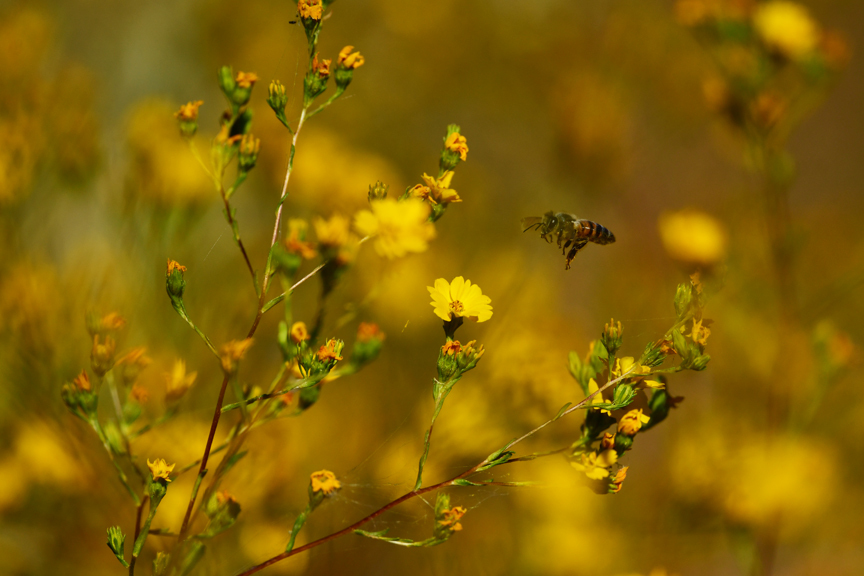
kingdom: Plantae
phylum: Tracheophyta
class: Magnoliopsida
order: Asterales
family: Asteraceae
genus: Deinandra
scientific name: Deinandra fasciculata
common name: Clustered tarweed
